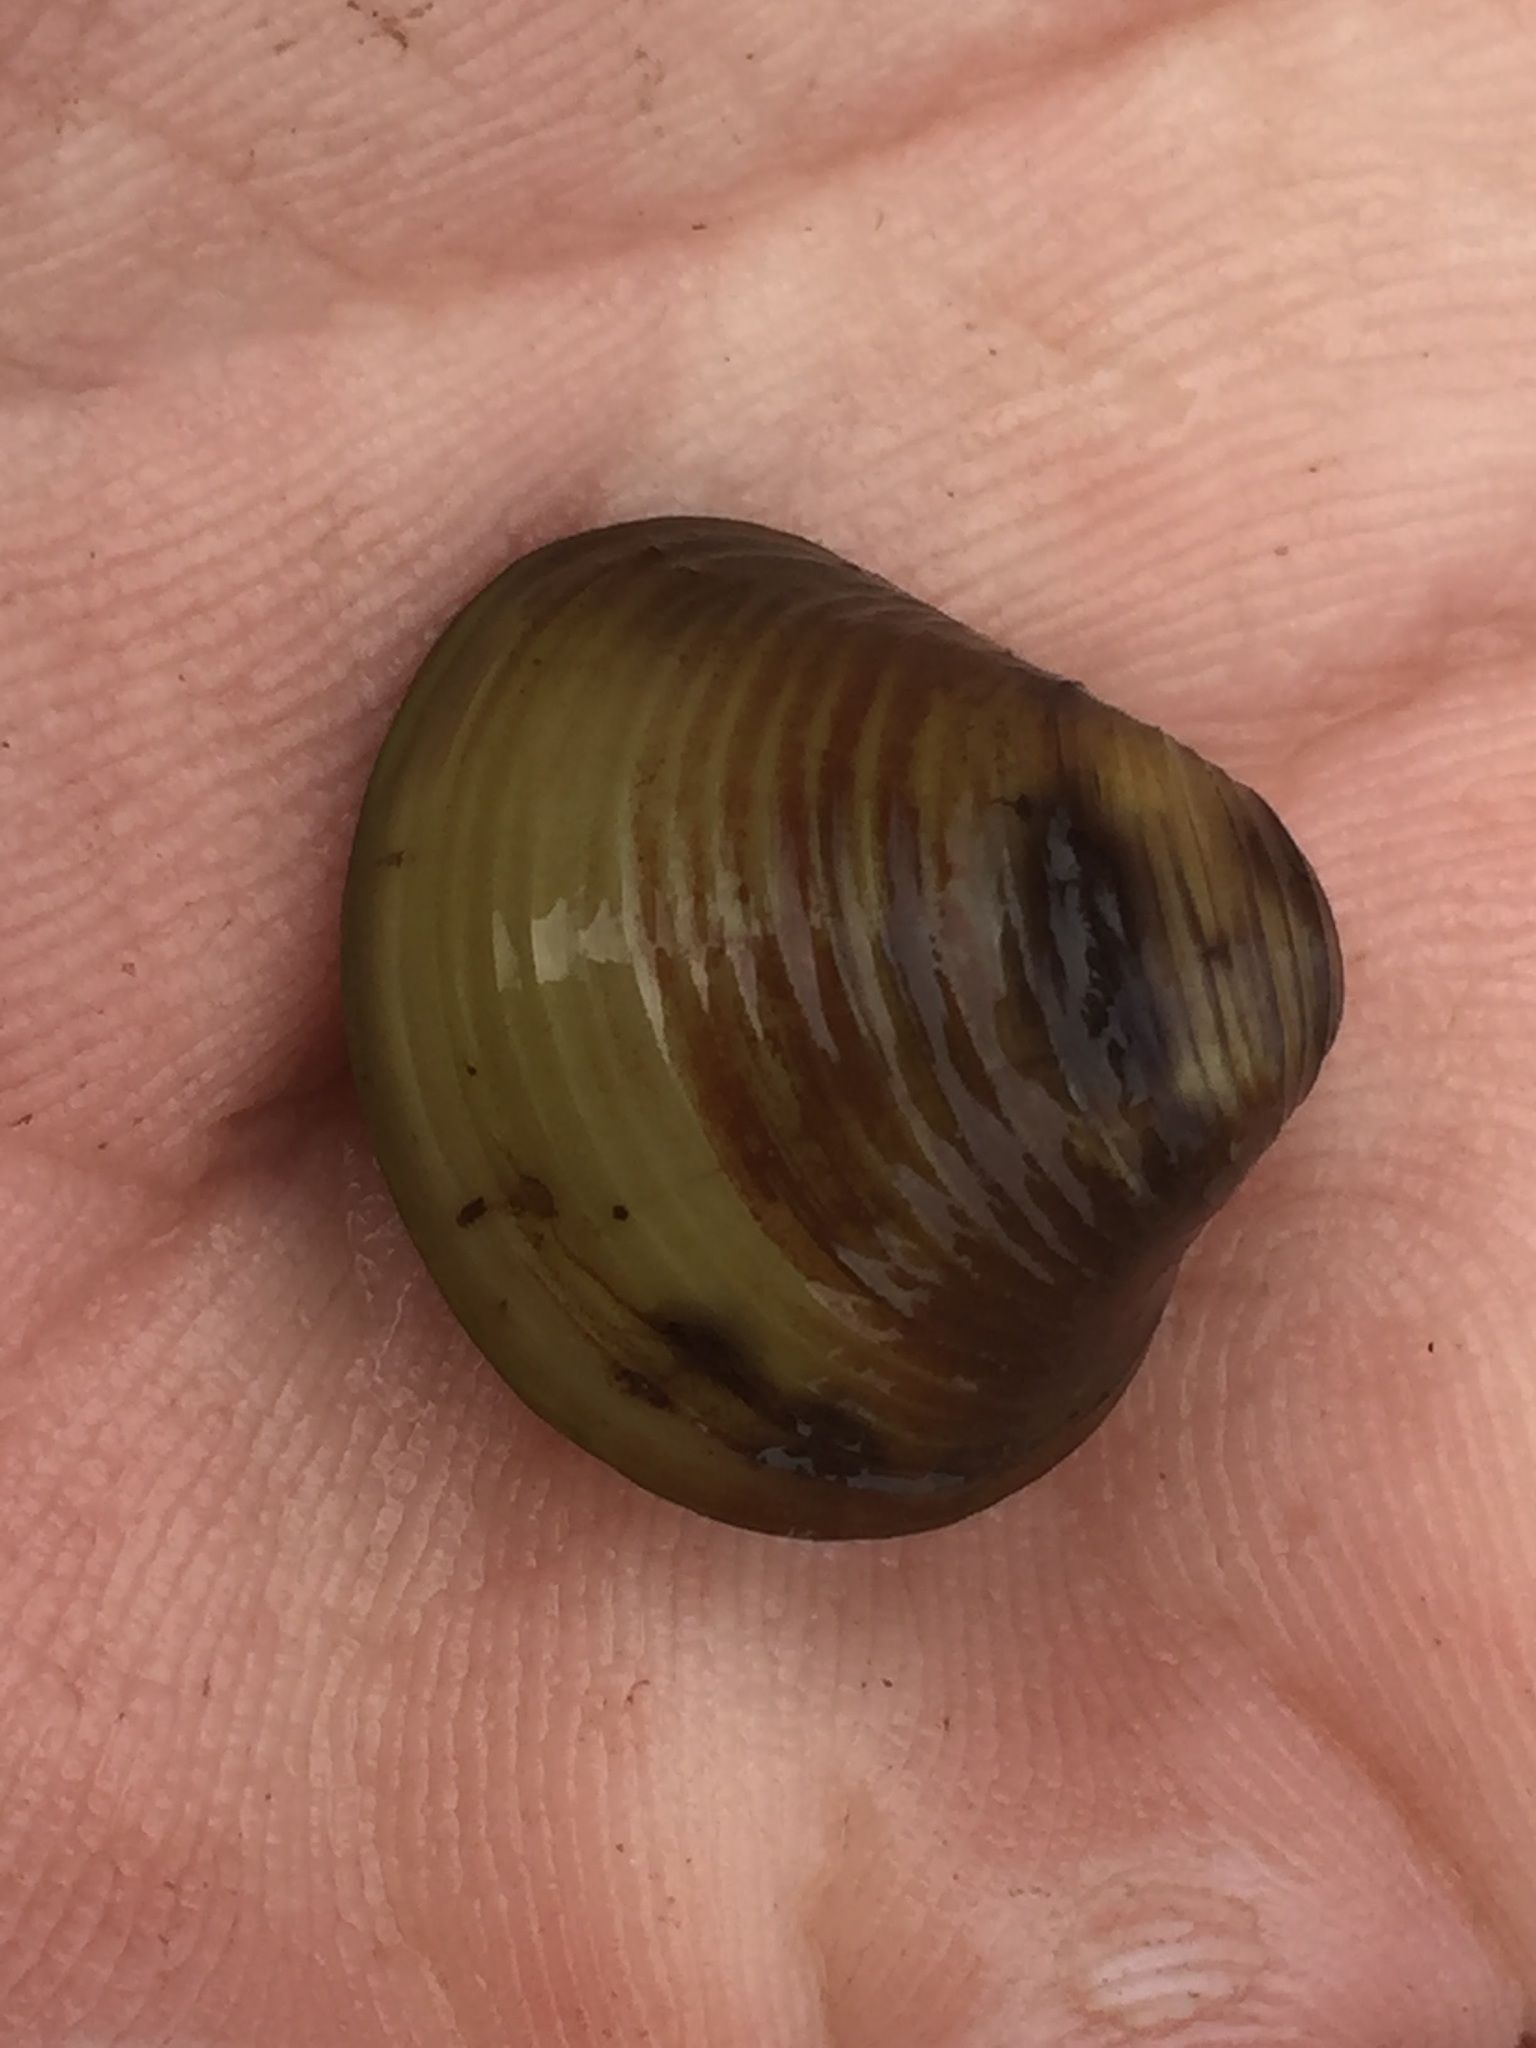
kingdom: Animalia
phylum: Mollusca
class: Bivalvia
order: Venerida
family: Cyrenidae
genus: Corbicula
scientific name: Corbicula fluminea
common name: Asian clam
